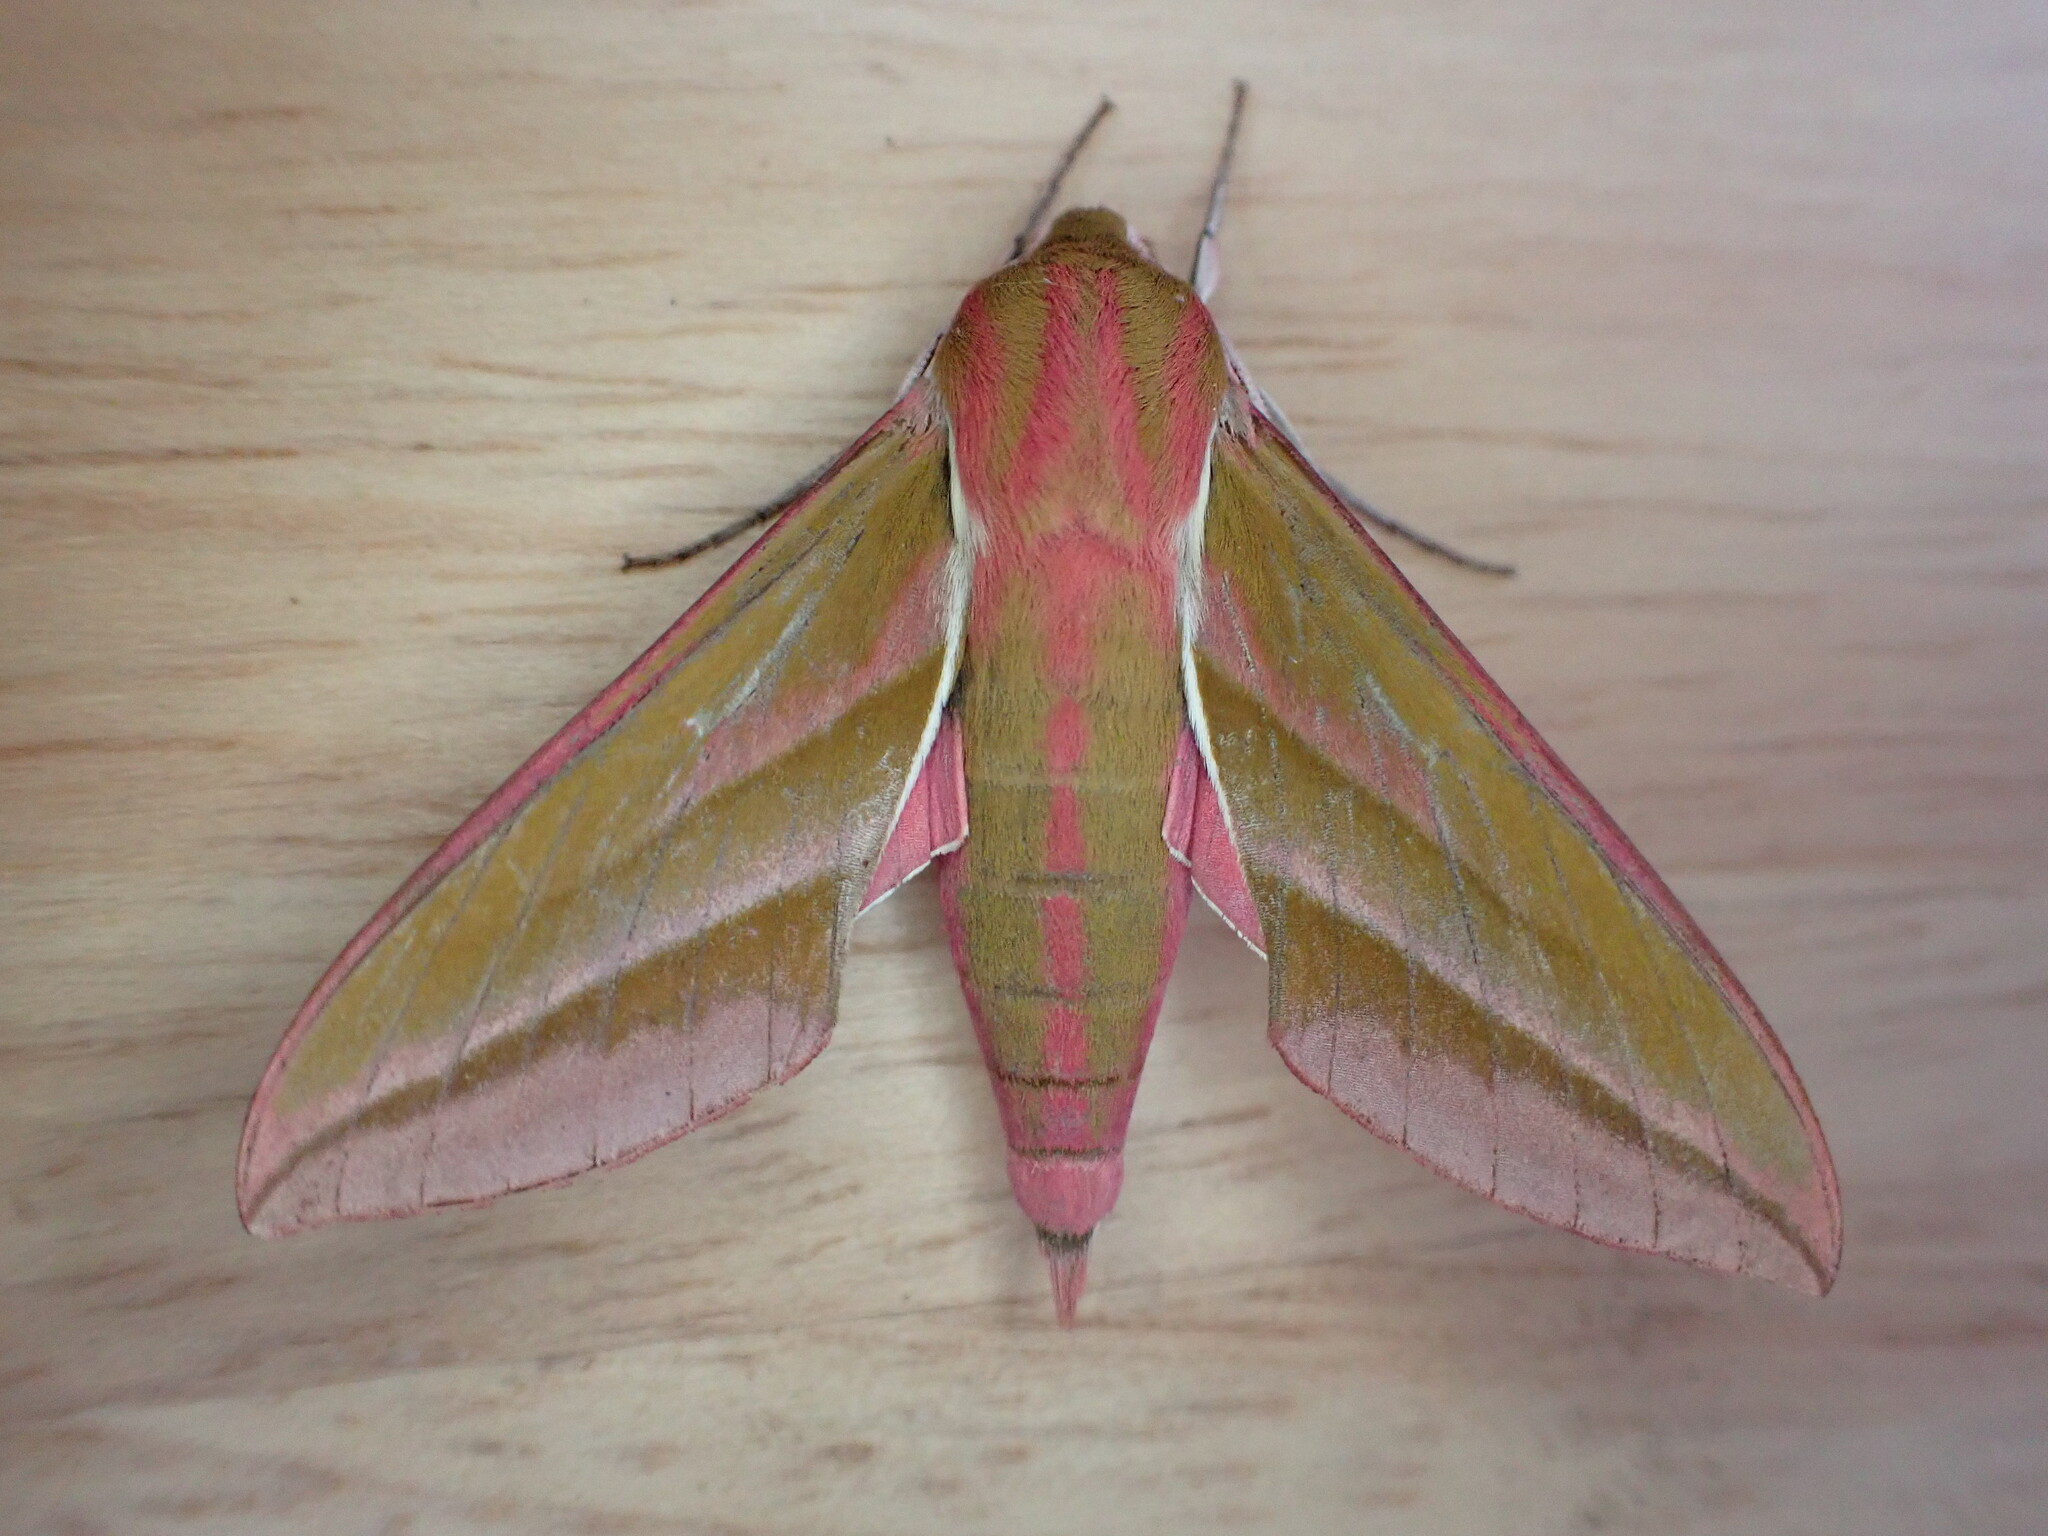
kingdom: Animalia
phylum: Arthropoda
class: Insecta
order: Lepidoptera
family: Sphingidae
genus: Deilephila
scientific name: Deilephila elpenor
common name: Elephant hawk-moth
